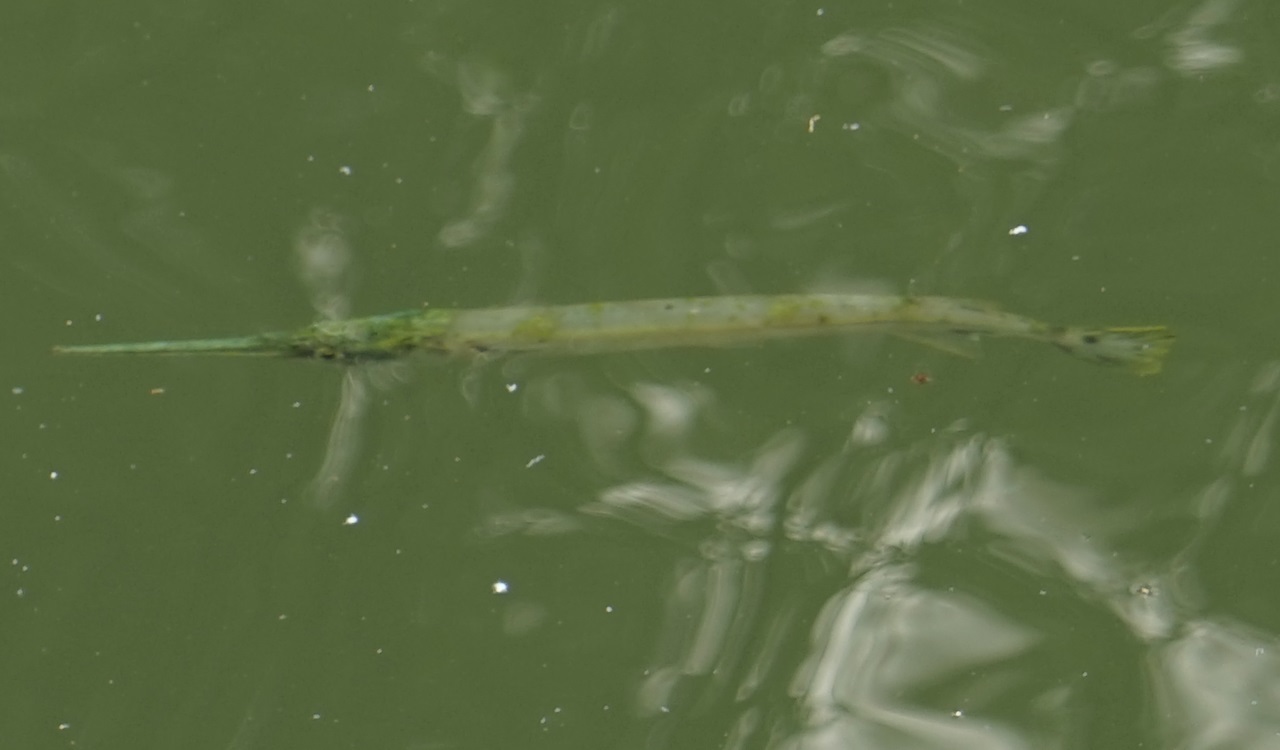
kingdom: Animalia
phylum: Chordata
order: Beloniformes
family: Belonidae
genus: Strongylura
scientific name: Strongylura strongylura
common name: Spottail needlefish
